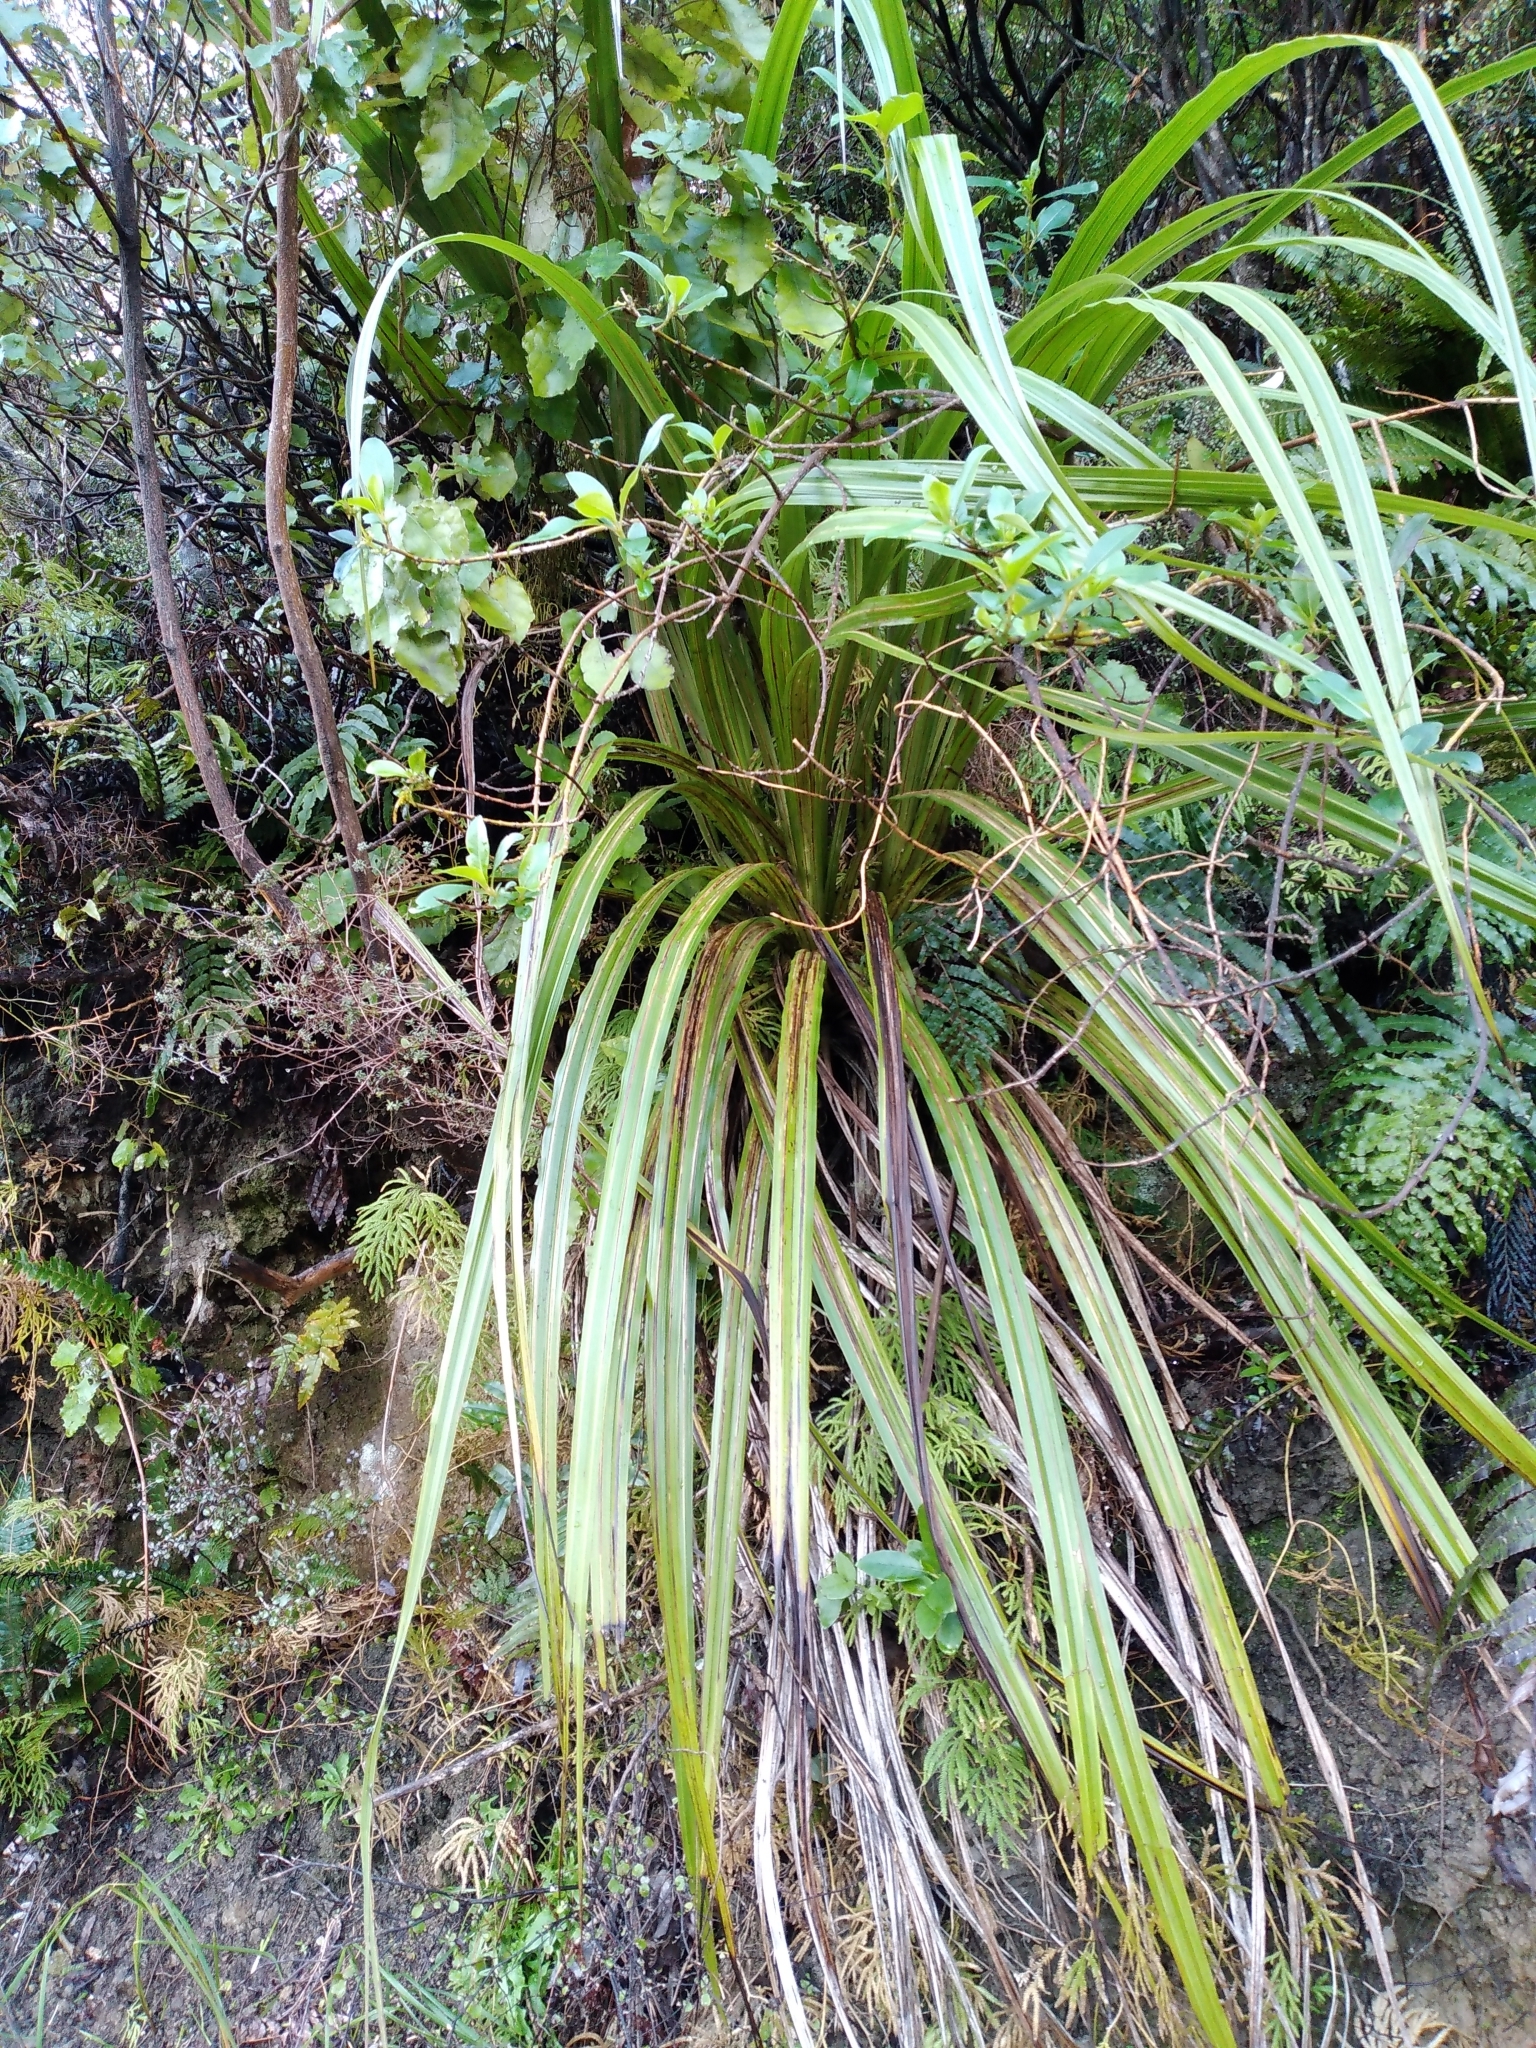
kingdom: Plantae
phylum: Tracheophyta
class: Liliopsida
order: Asparagales
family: Asteliaceae
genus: Astelia
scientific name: Astelia fragrans
